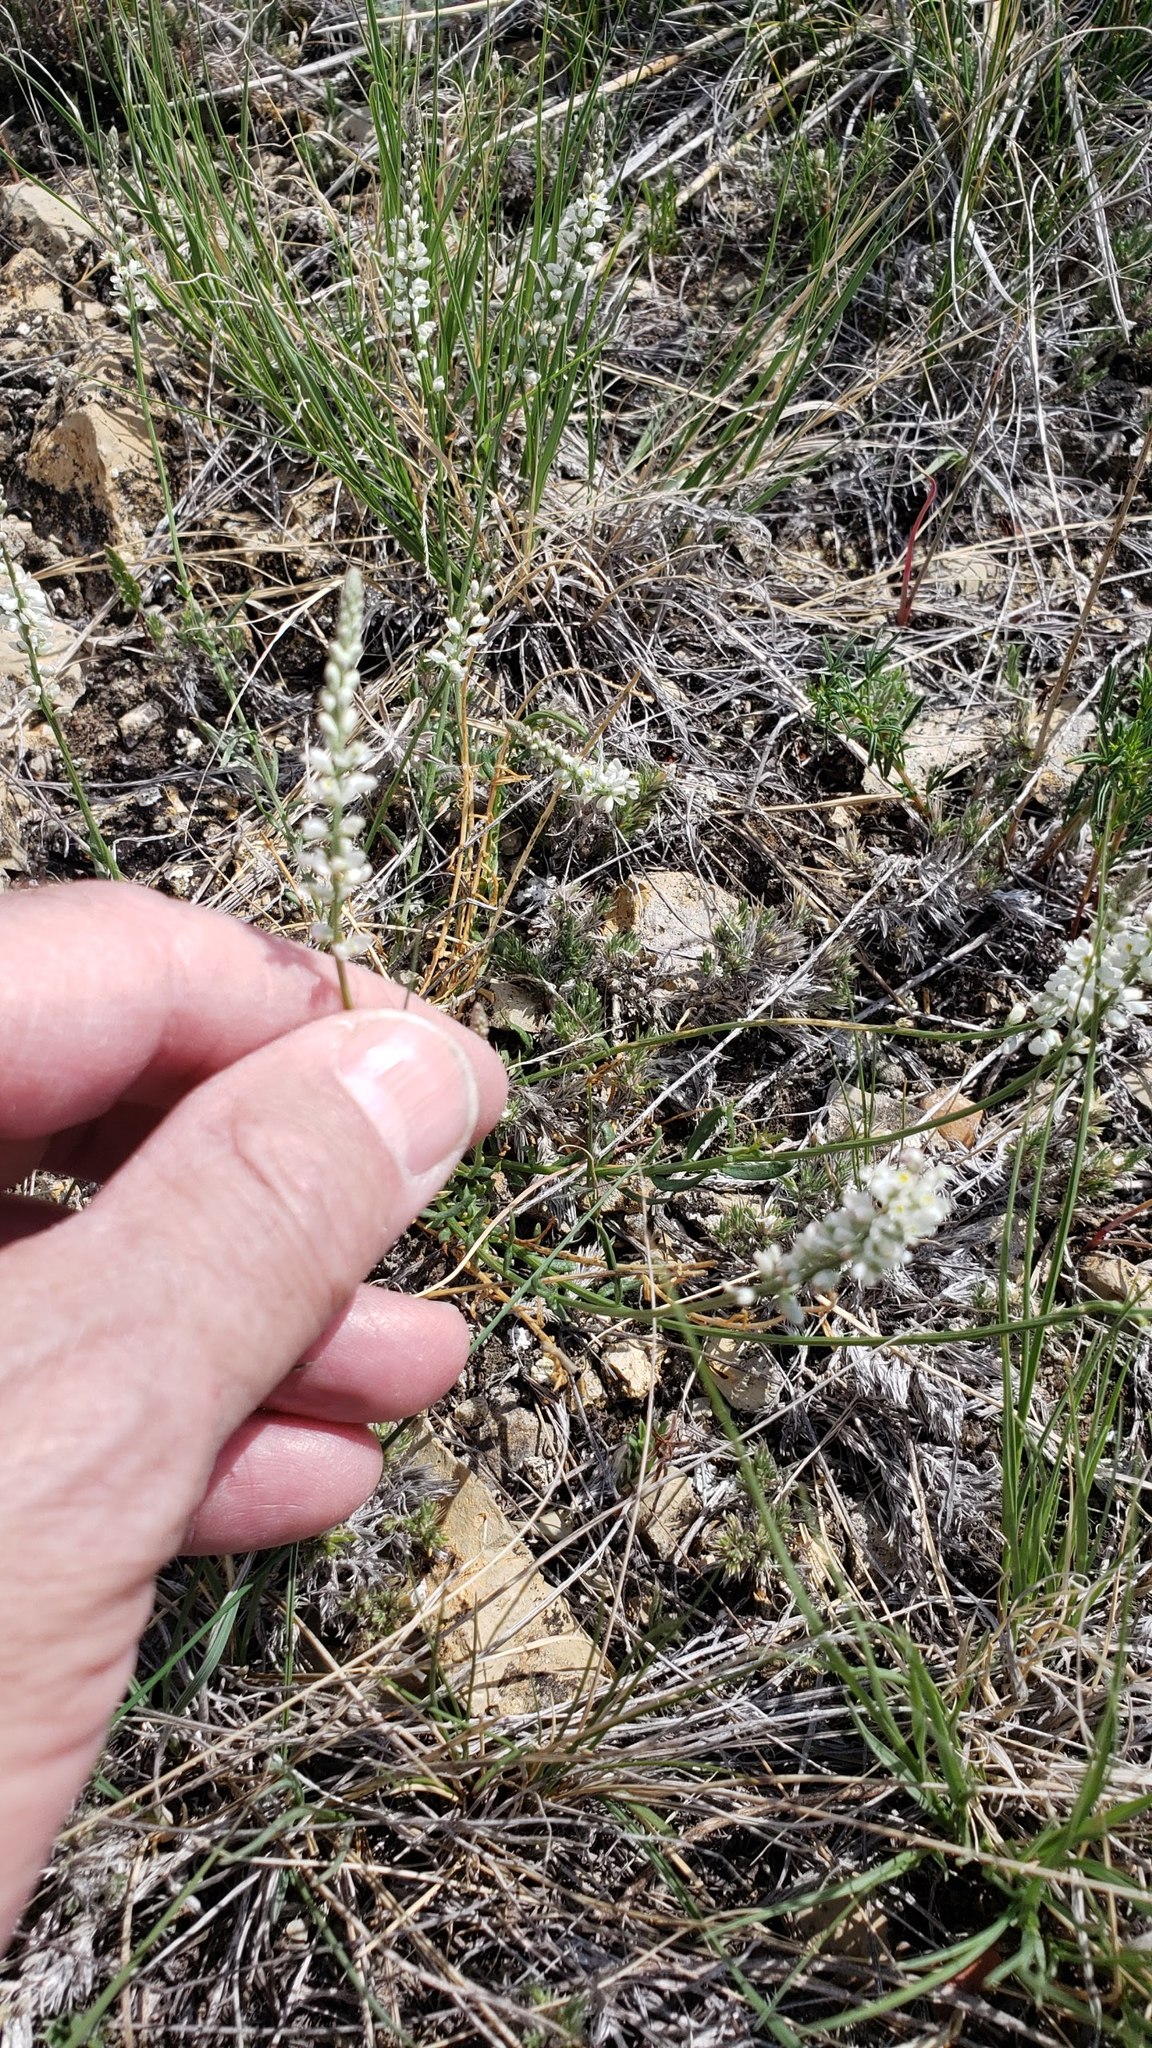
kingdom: Plantae
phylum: Tracheophyta
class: Magnoliopsida
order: Fabales
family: Polygalaceae
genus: Polygala
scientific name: Polygala alba
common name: White milkwort
